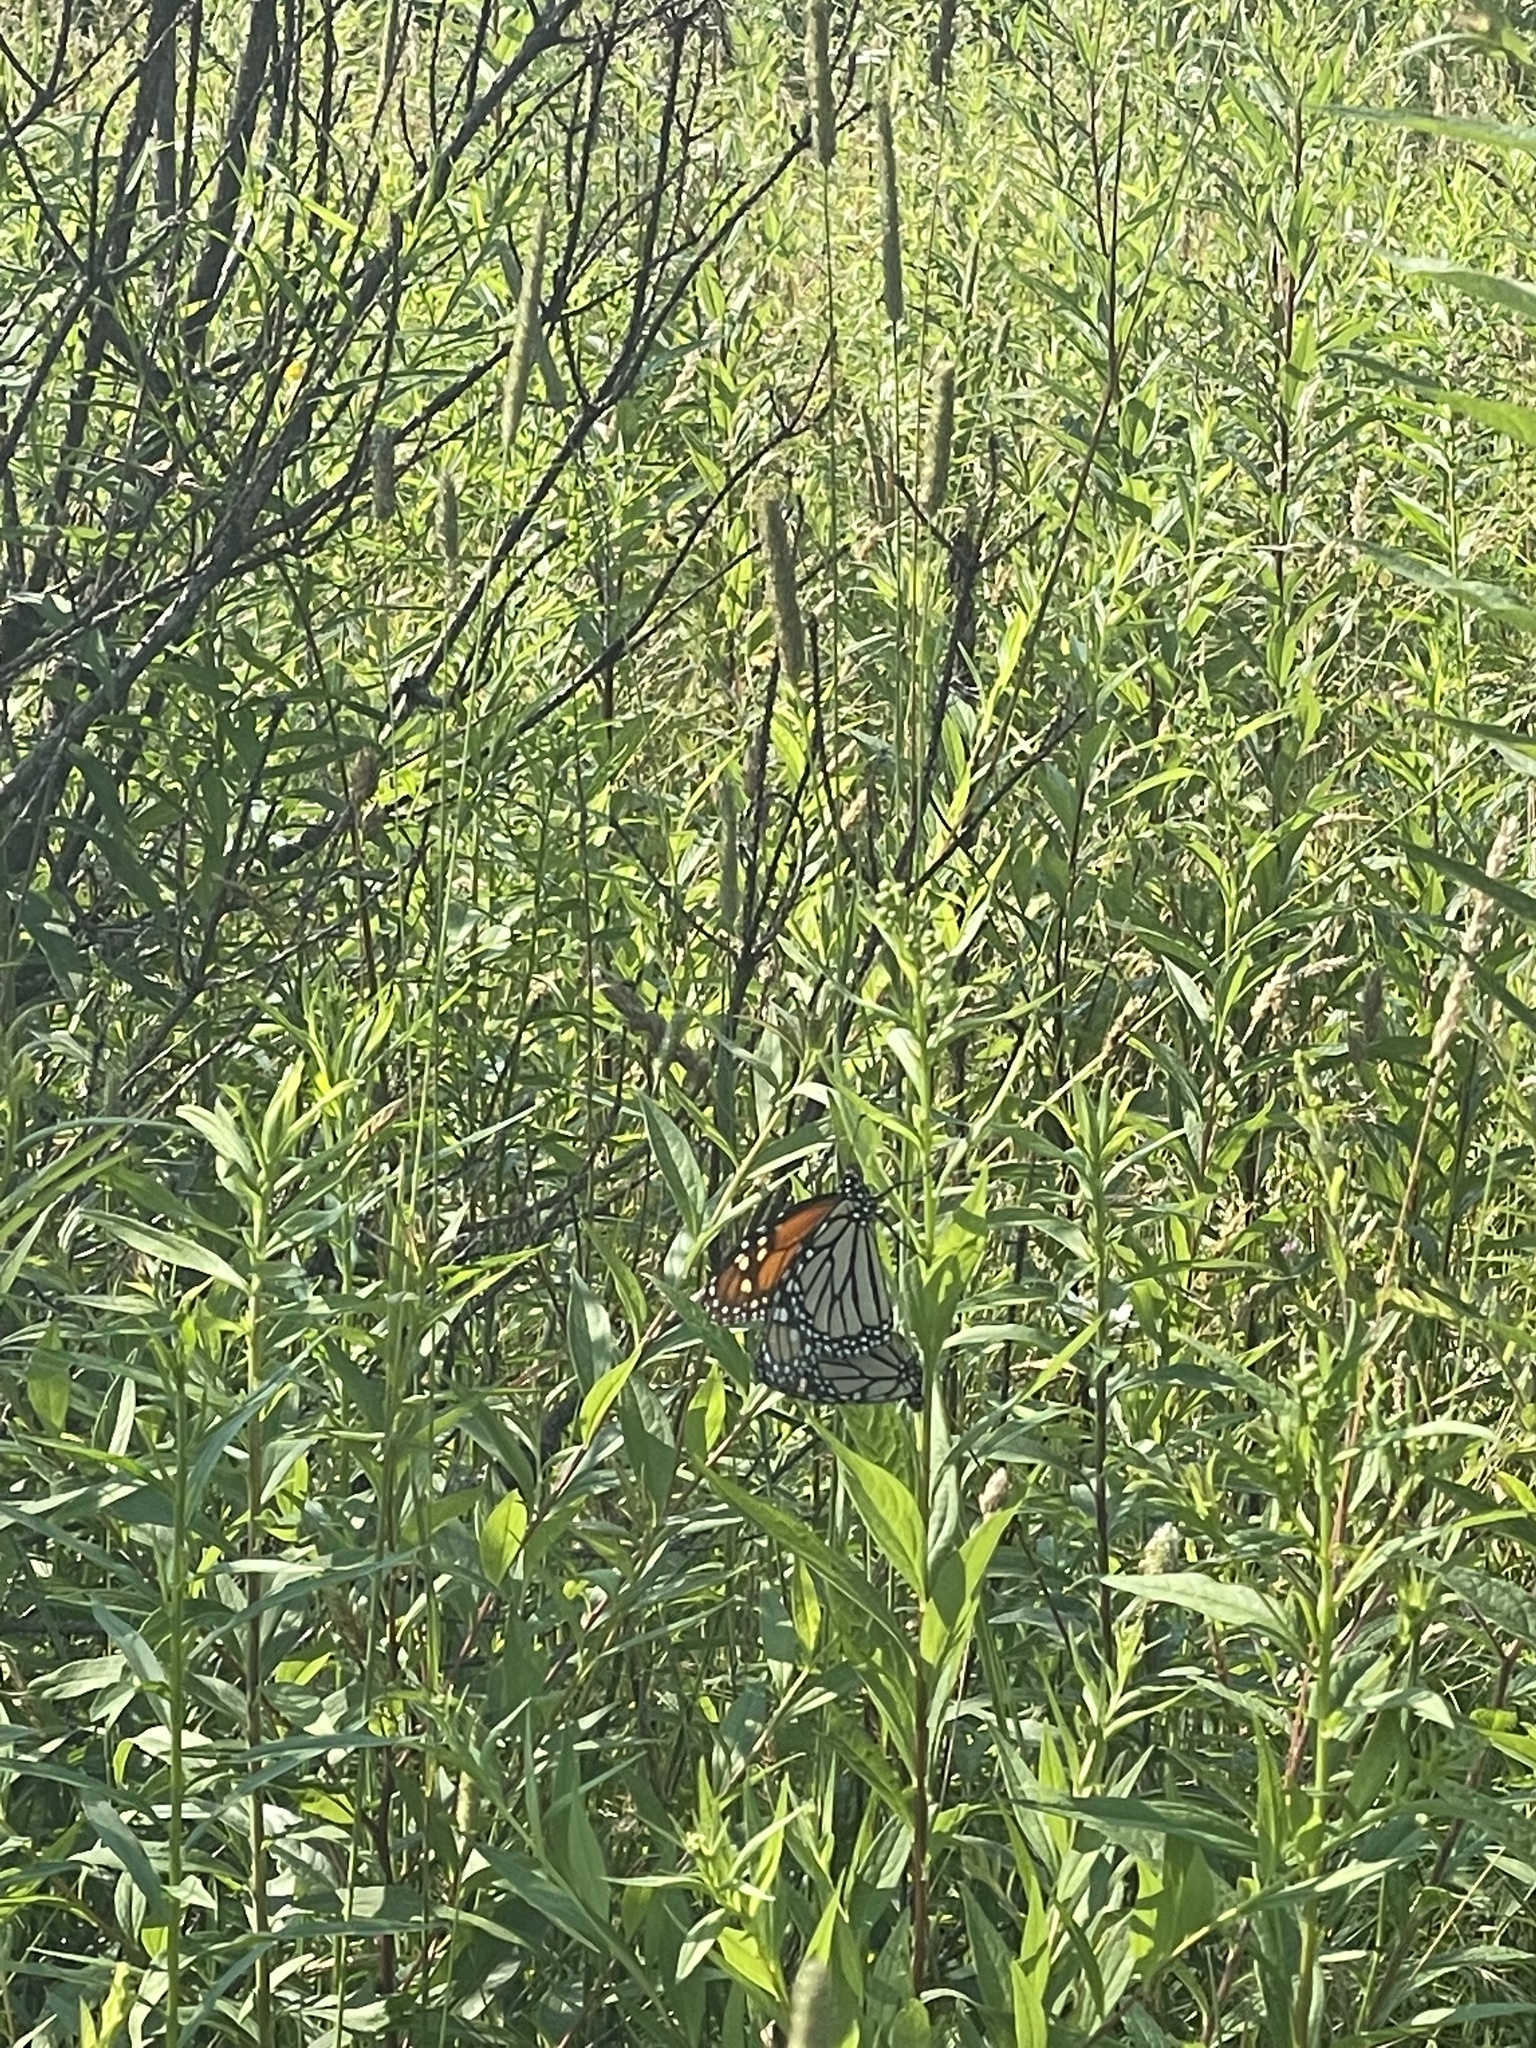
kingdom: Animalia
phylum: Arthropoda
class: Insecta
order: Lepidoptera
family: Nymphalidae
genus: Danaus
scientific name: Danaus plexippus
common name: Monarch
